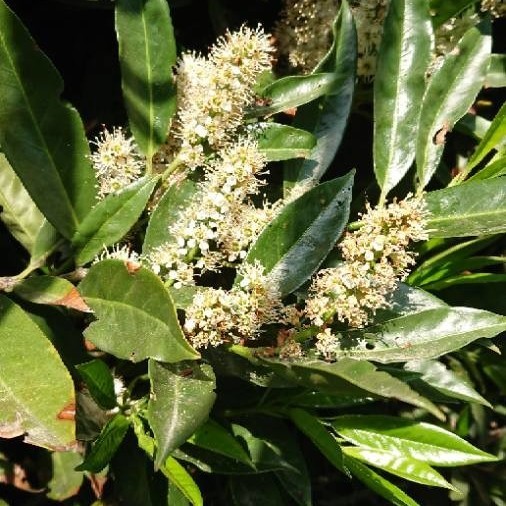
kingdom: Plantae
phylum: Tracheophyta
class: Magnoliopsida
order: Rosales
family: Rosaceae
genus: Prunus
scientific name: Prunus laurocerasus
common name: Cherry laurel
